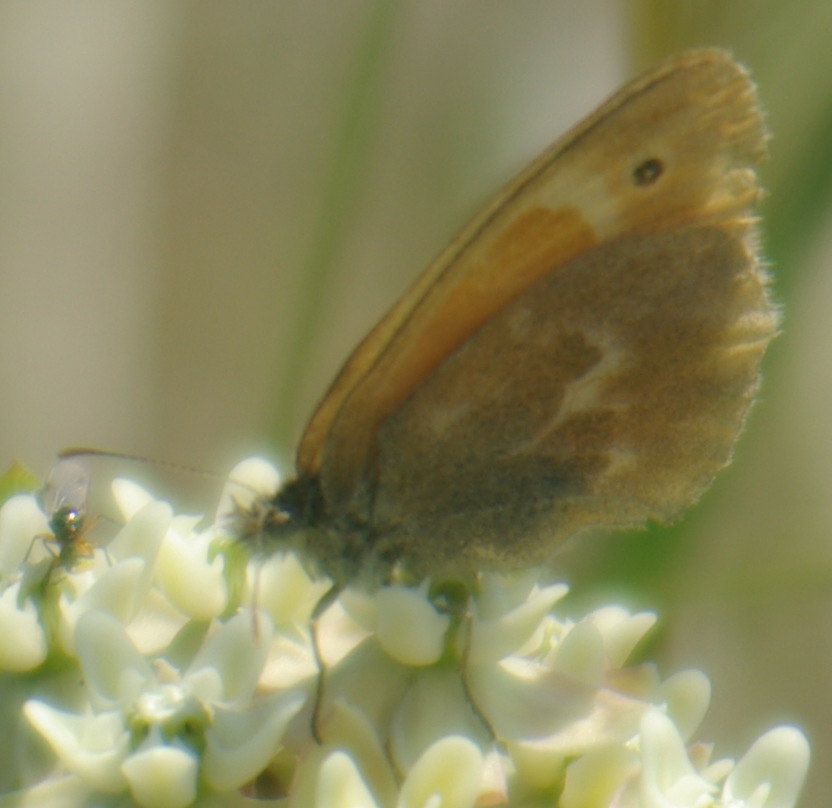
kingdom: Animalia
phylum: Arthropoda
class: Insecta
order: Lepidoptera
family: Nymphalidae
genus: Coenonympha
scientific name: Coenonympha california
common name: Common ringlet
